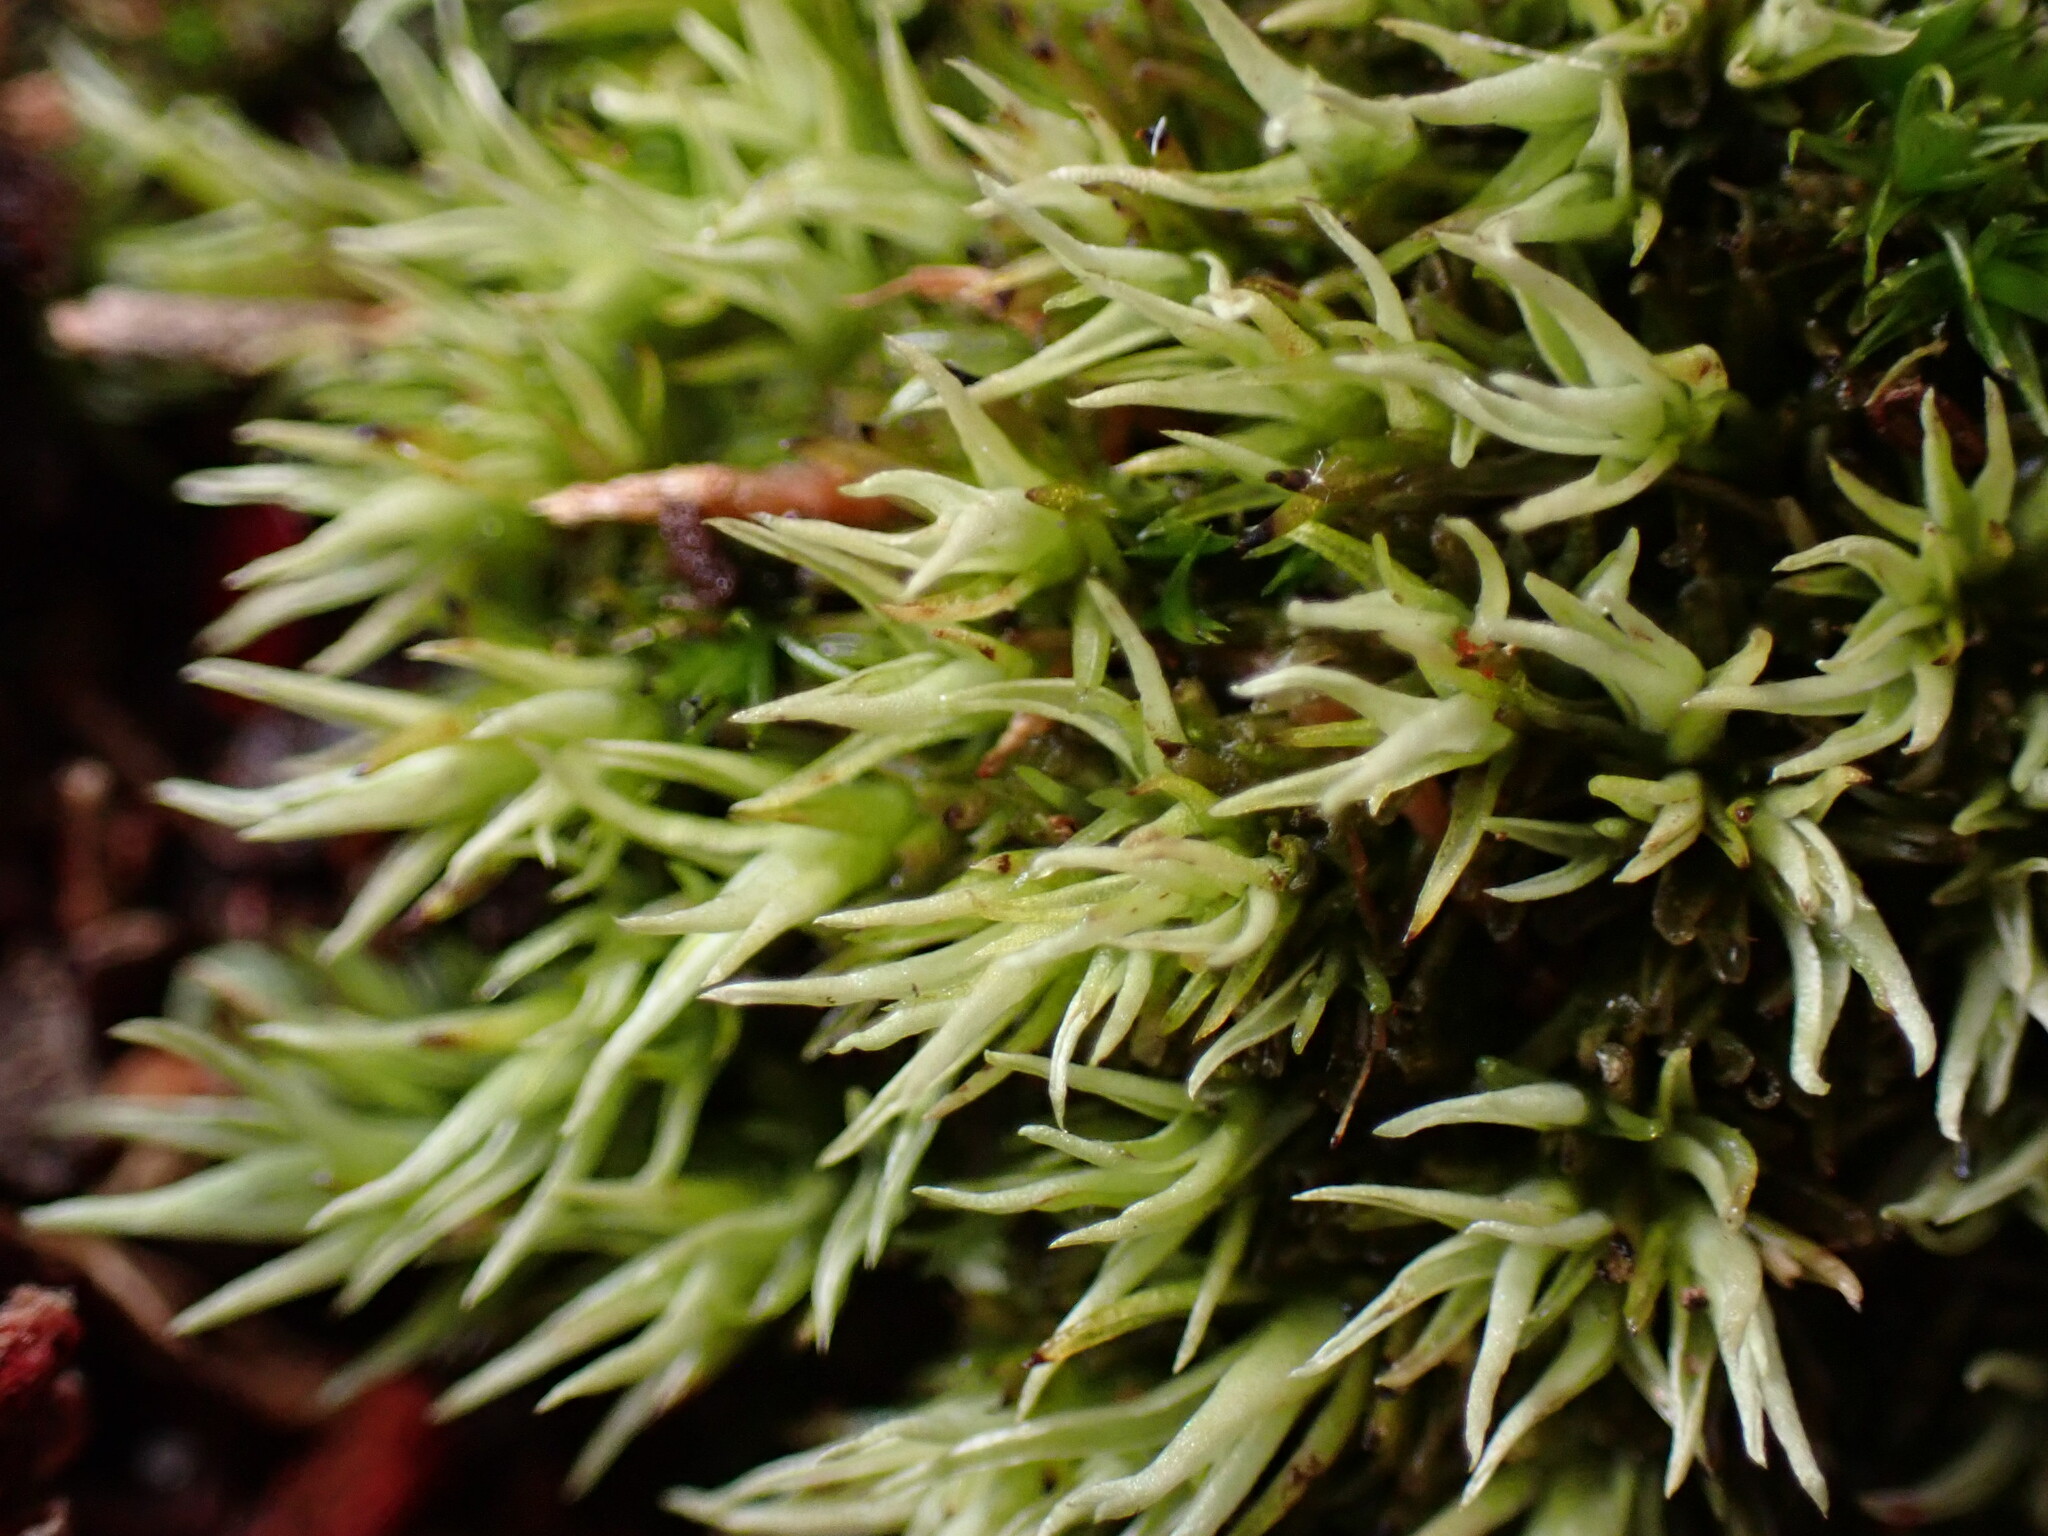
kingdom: Plantae
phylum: Bryophyta
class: Bryopsida
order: Dicranales
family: Leucobryaceae
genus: Leucobryum
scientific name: Leucobryum albidum
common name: White moss
